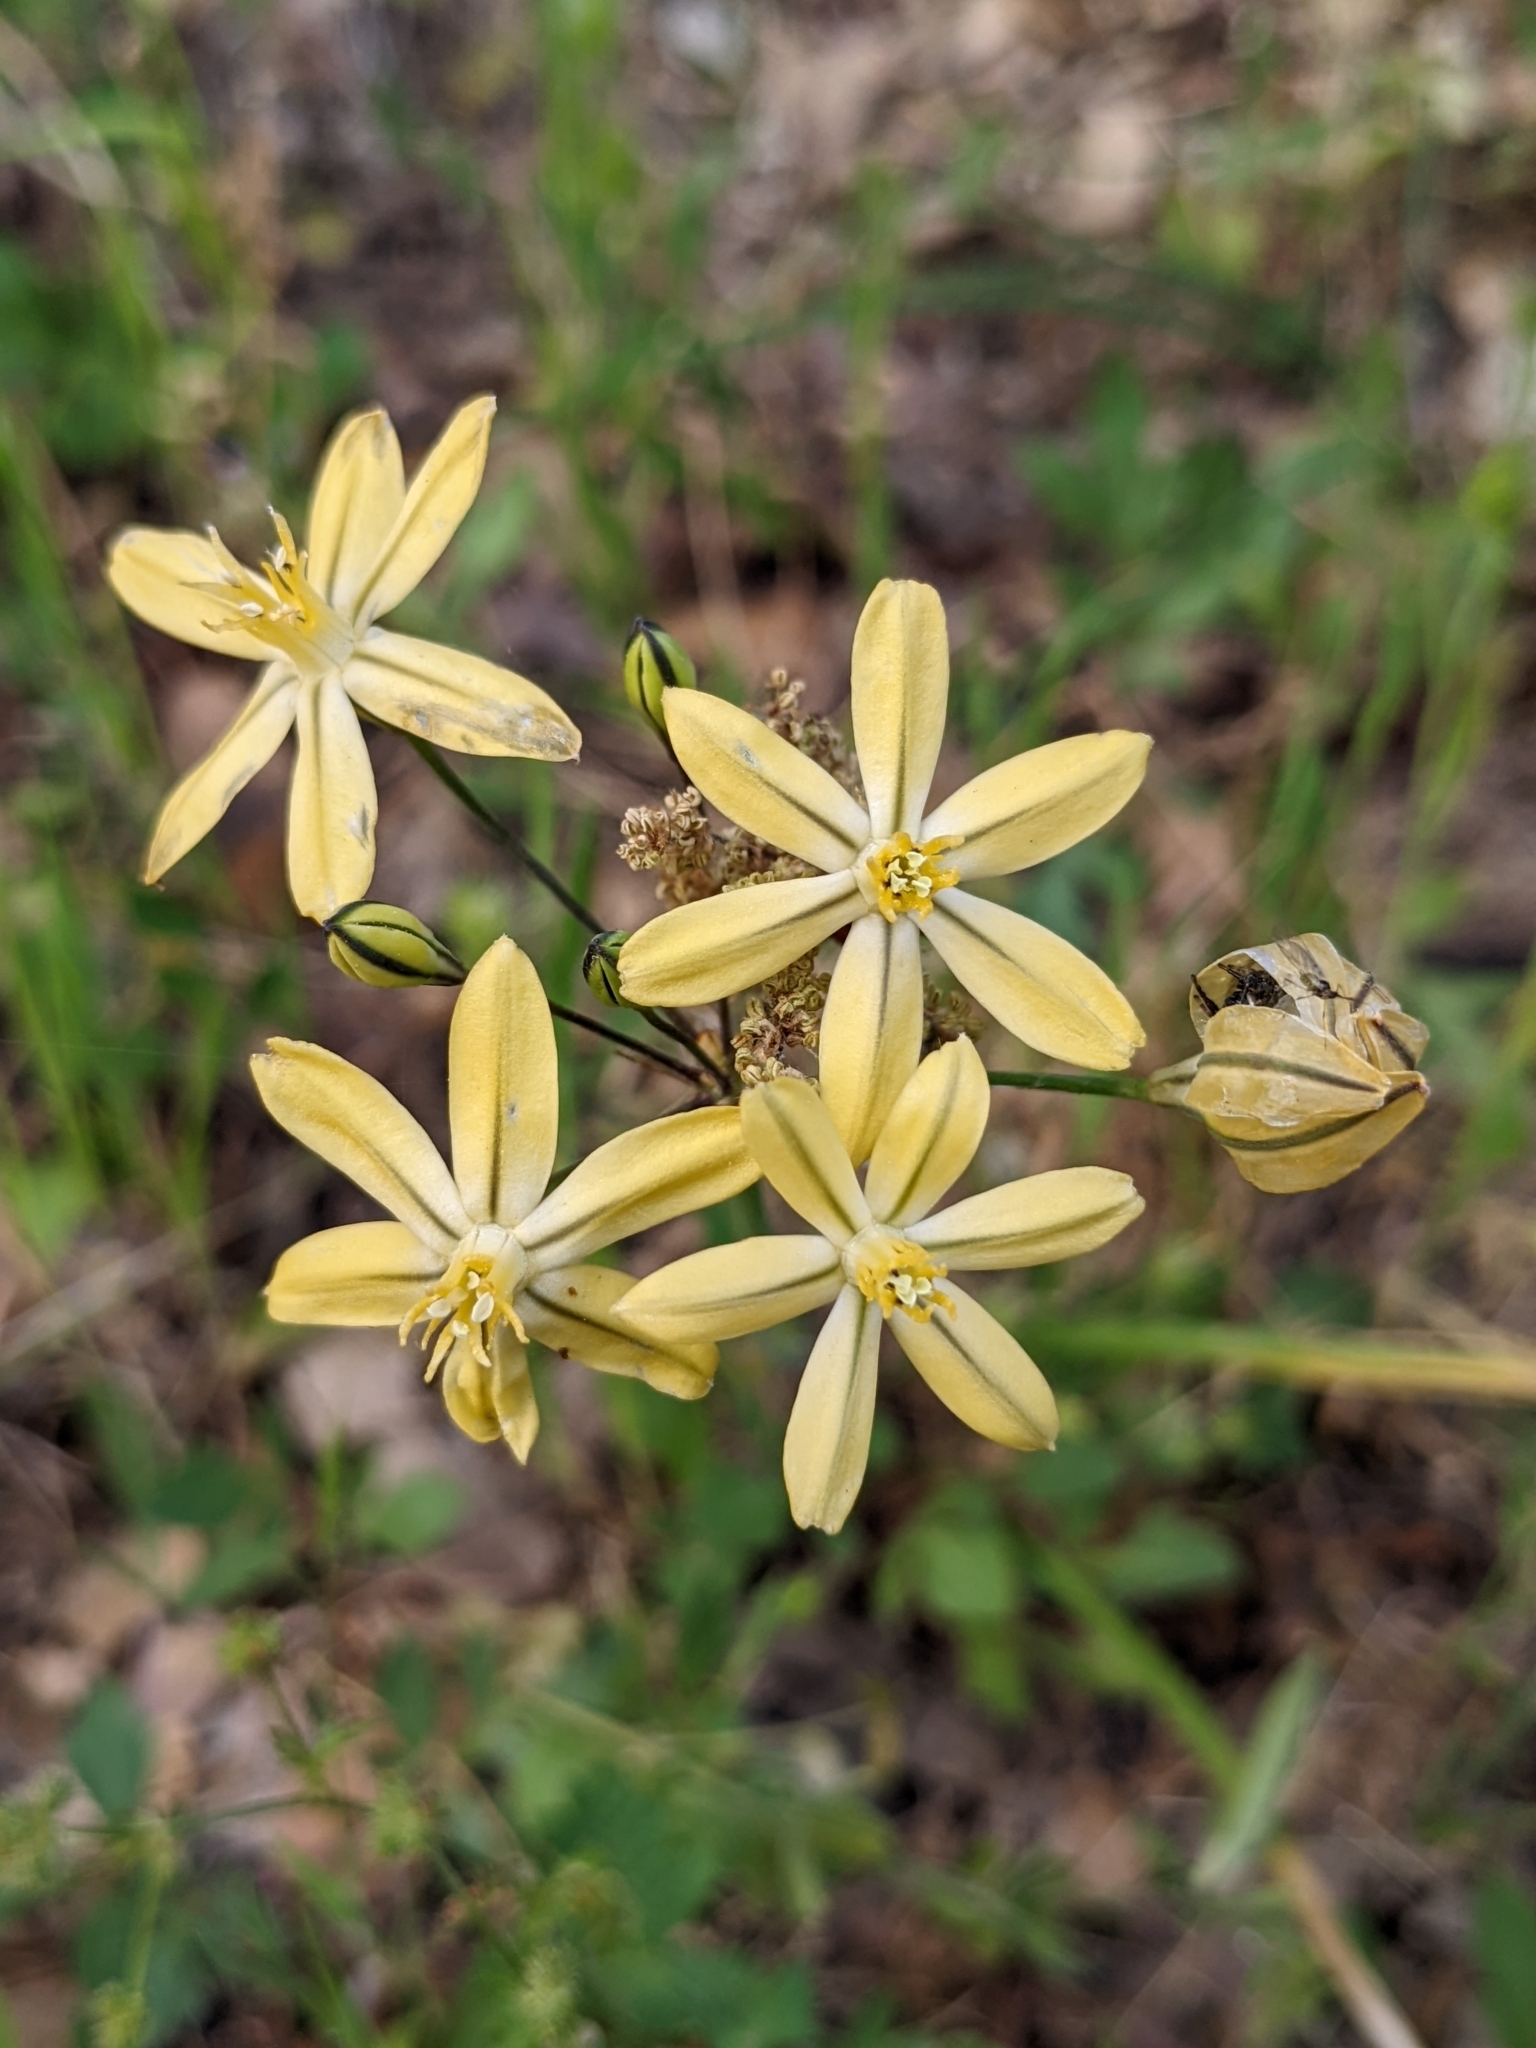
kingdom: Plantae
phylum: Tracheophyta
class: Liliopsida
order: Asparagales
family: Asparagaceae
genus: Triteleia
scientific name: Triteleia ixioides
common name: Yellow-brodiaea
